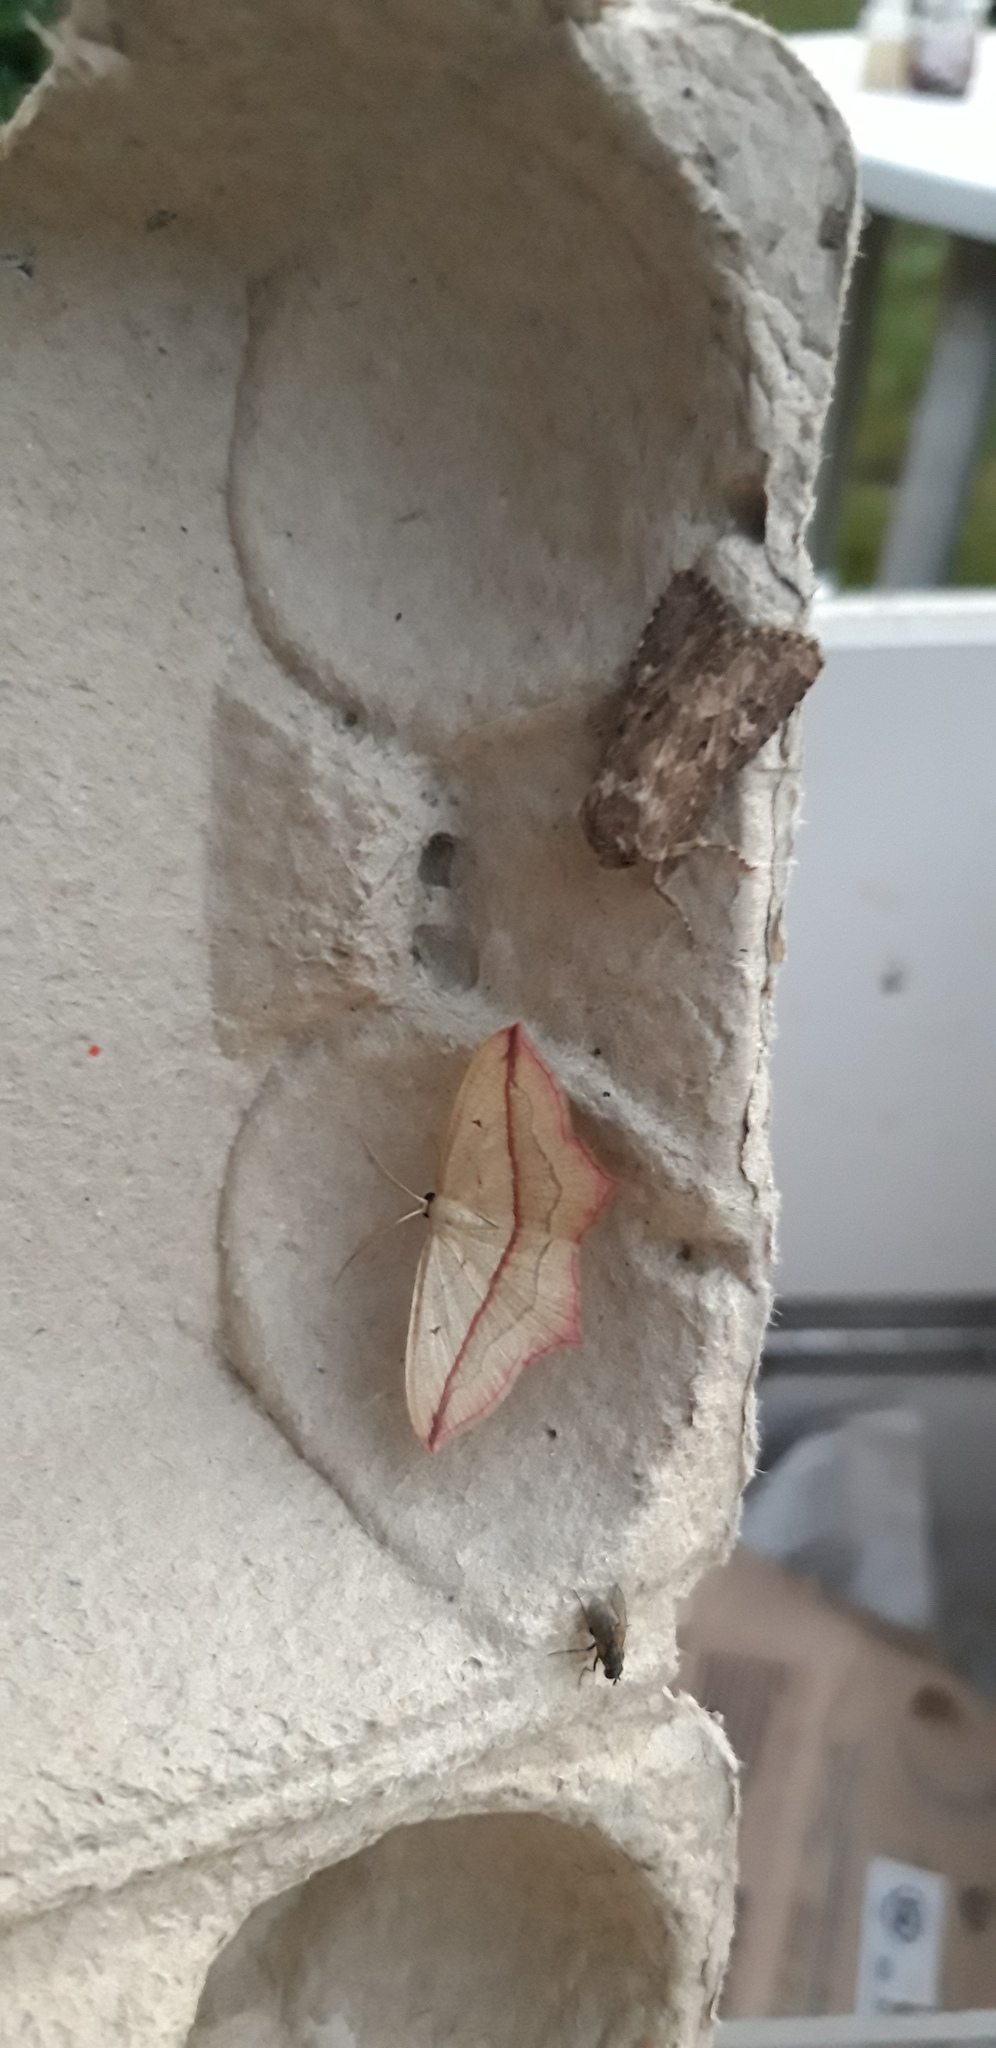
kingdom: Animalia
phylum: Arthropoda
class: Insecta
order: Lepidoptera
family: Geometridae
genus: Timandra
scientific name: Timandra comae
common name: Blood-vein
